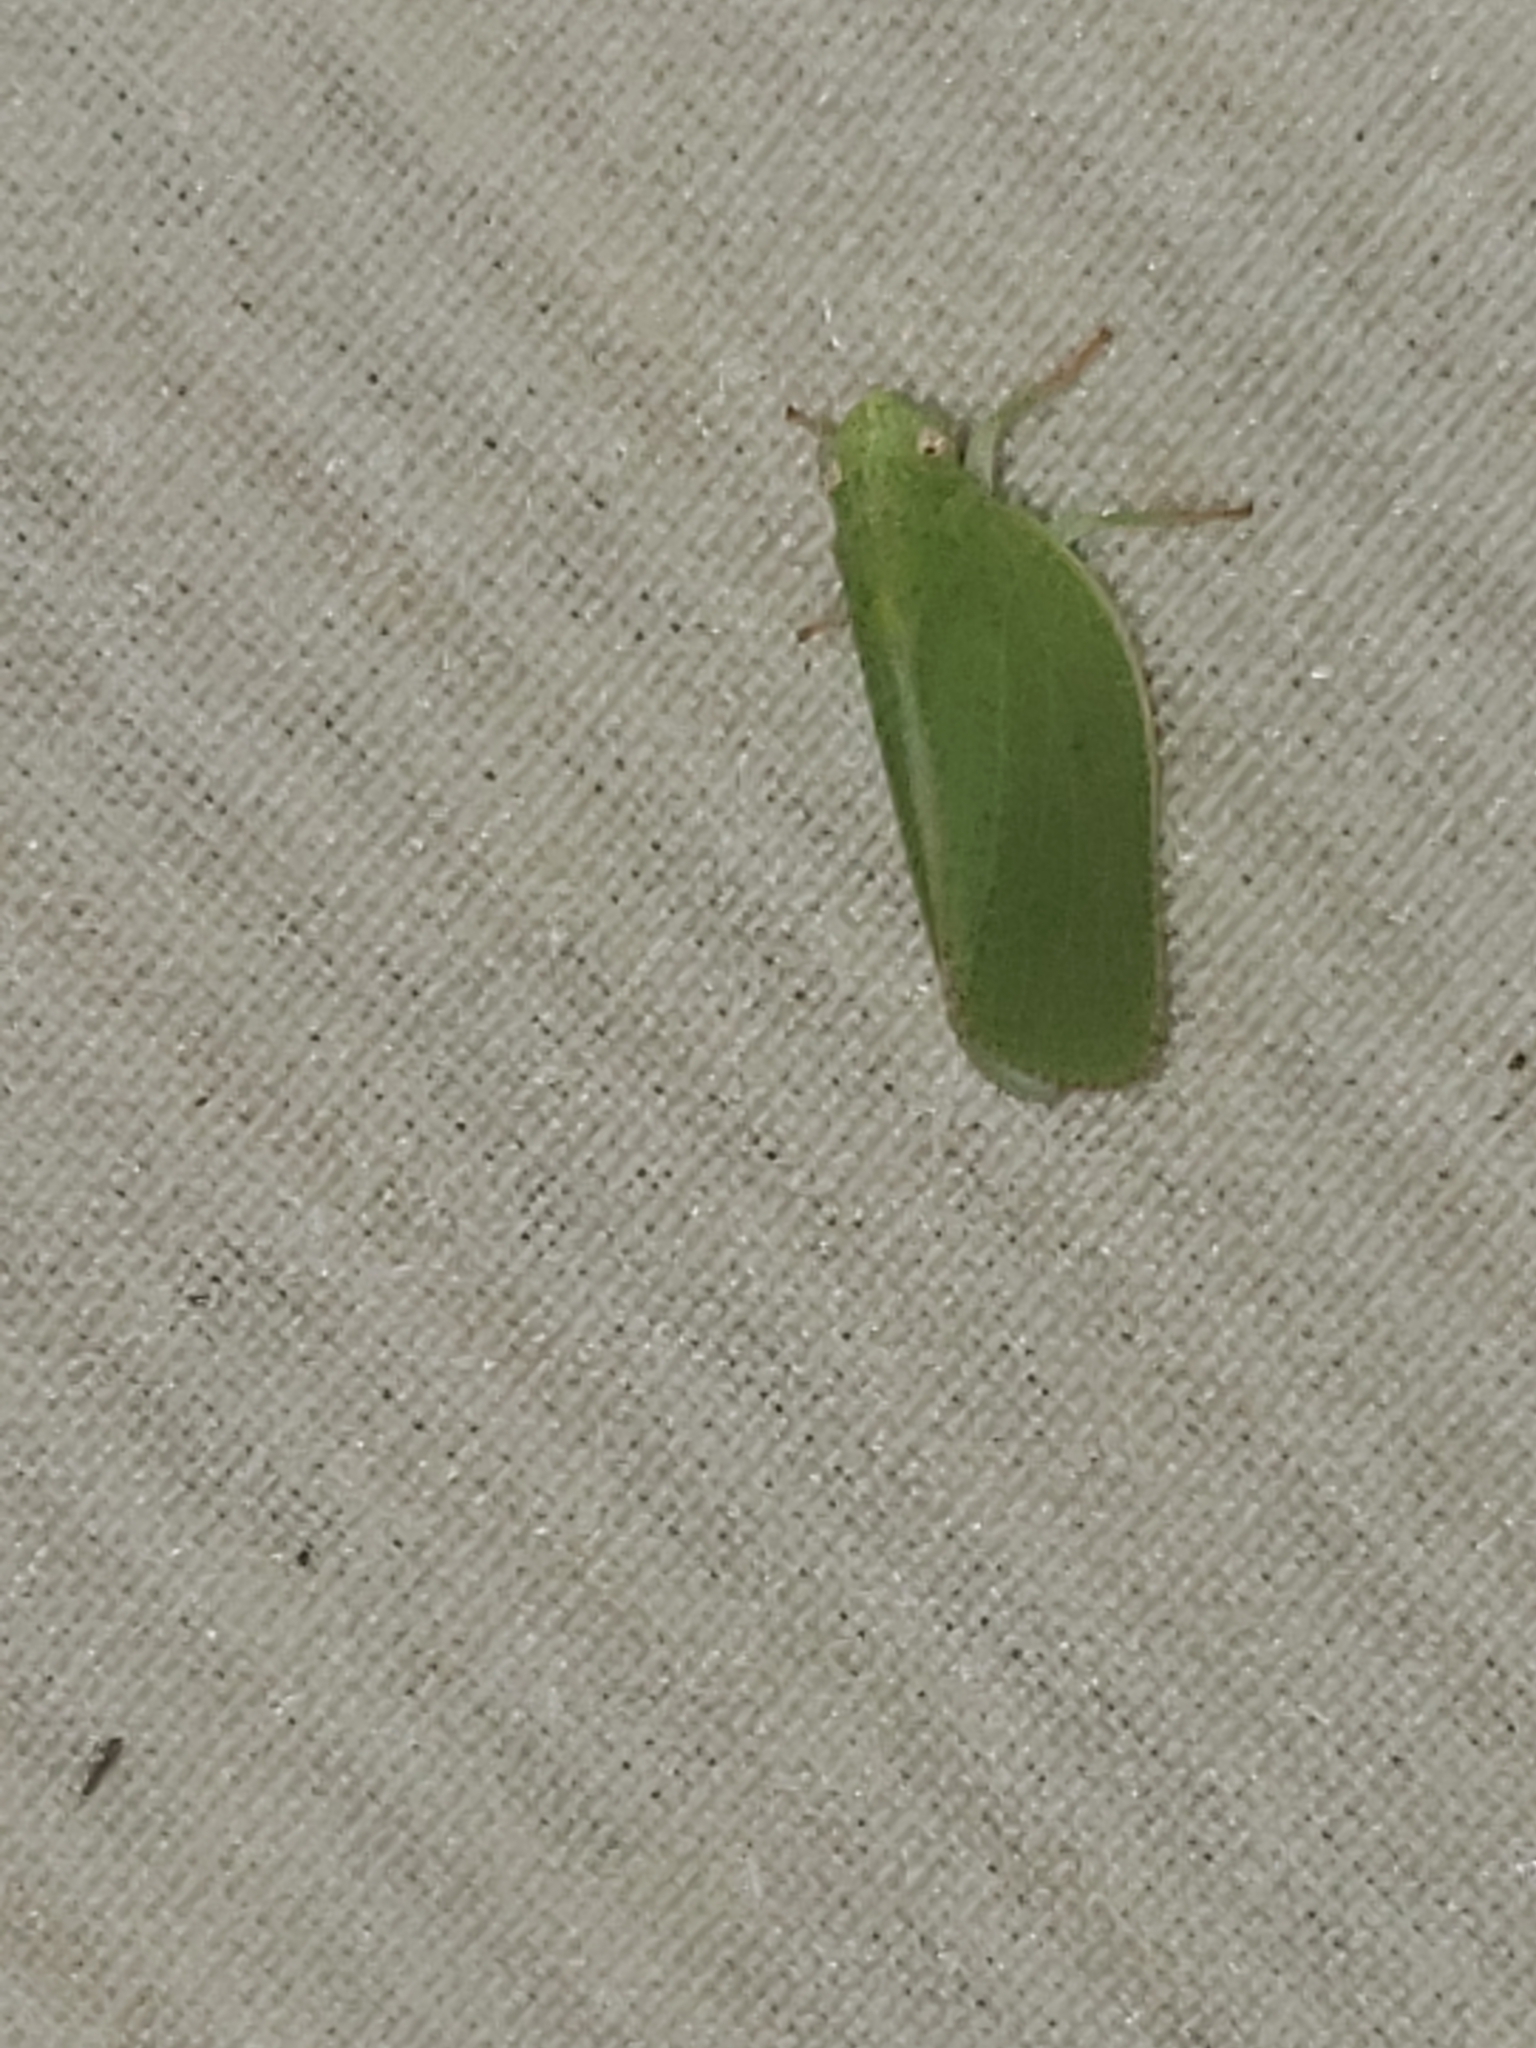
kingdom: Animalia
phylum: Arthropoda
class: Insecta
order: Hemiptera
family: Acanaloniidae
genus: Acanalonia
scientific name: Acanalonia conica
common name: Green cone-headed planthopper
